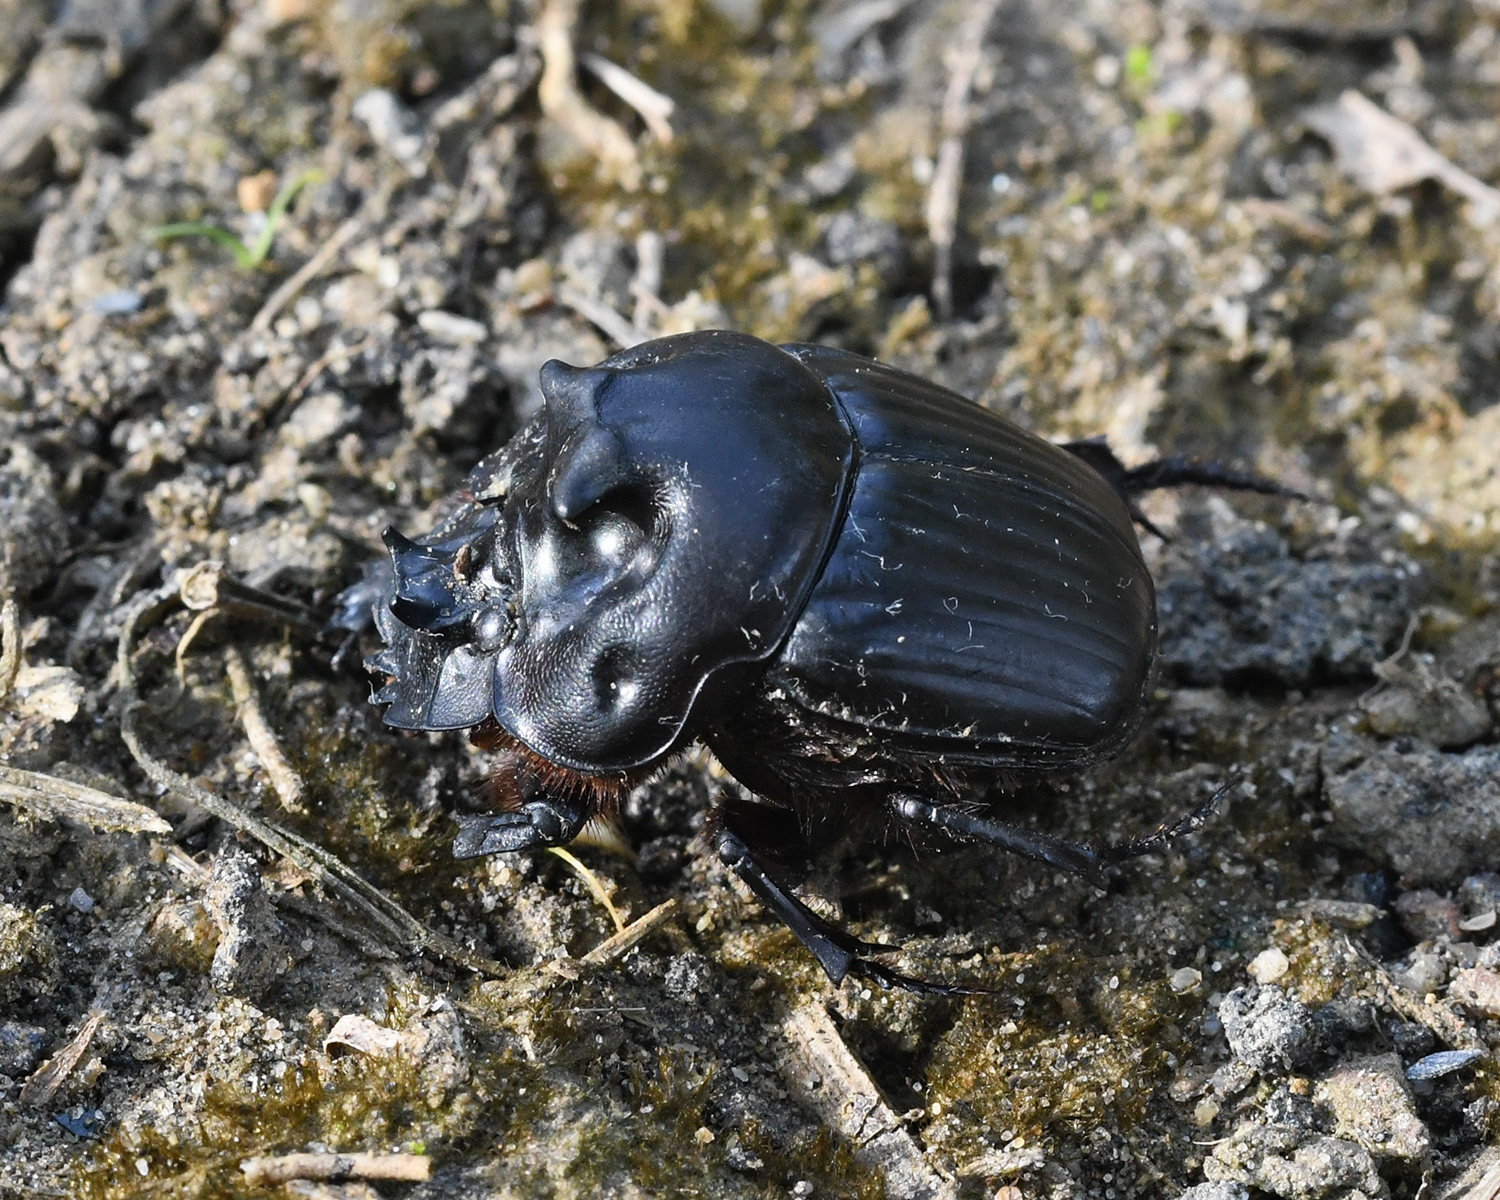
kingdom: Animalia
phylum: Arthropoda
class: Insecta
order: Coleoptera
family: Scarabaeidae
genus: Coprophanaeus
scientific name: Coprophanaeus dardanus
